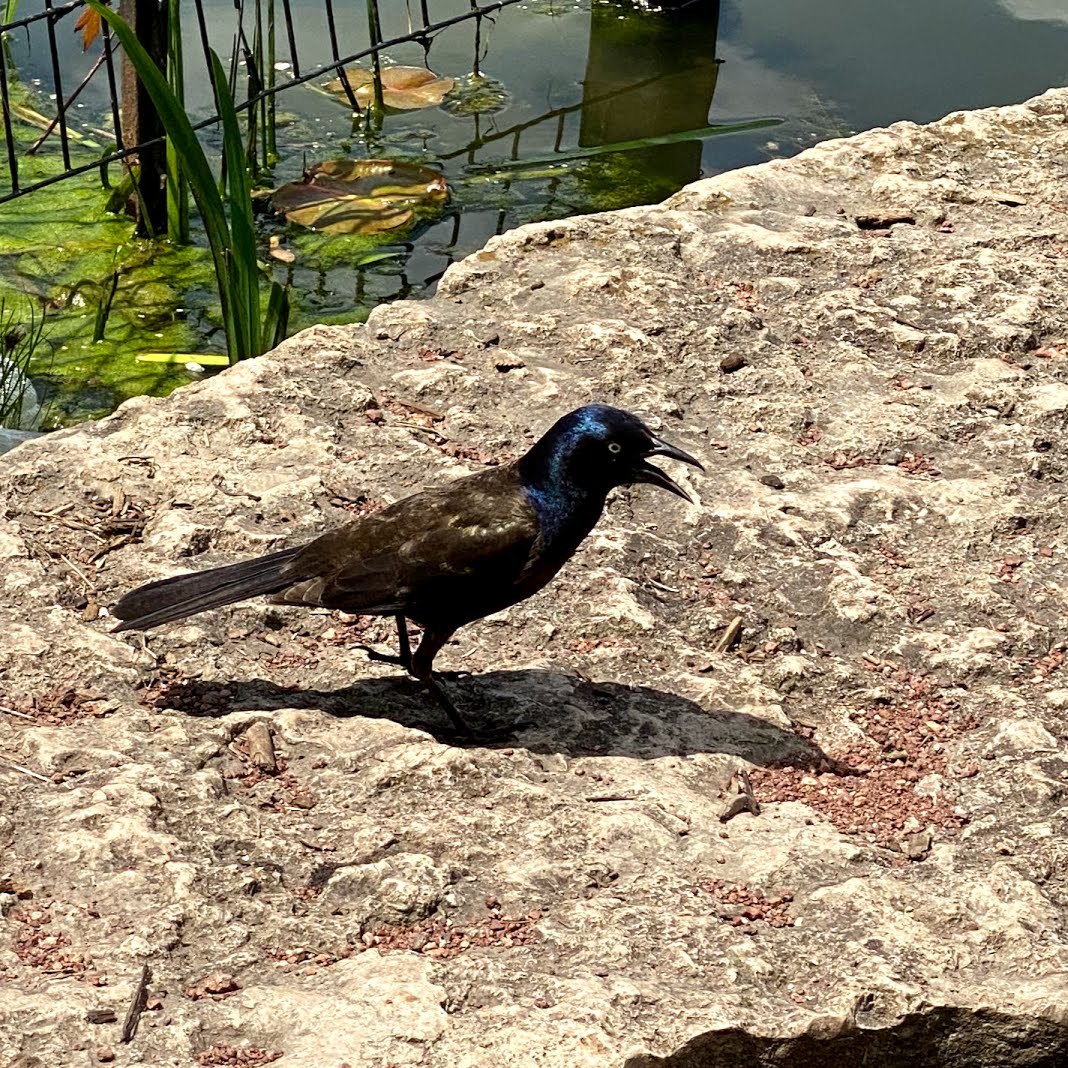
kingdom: Animalia
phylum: Chordata
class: Aves
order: Passeriformes
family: Icteridae
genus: Quiscalus
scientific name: Quiscalus quiscula
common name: Common grackle
